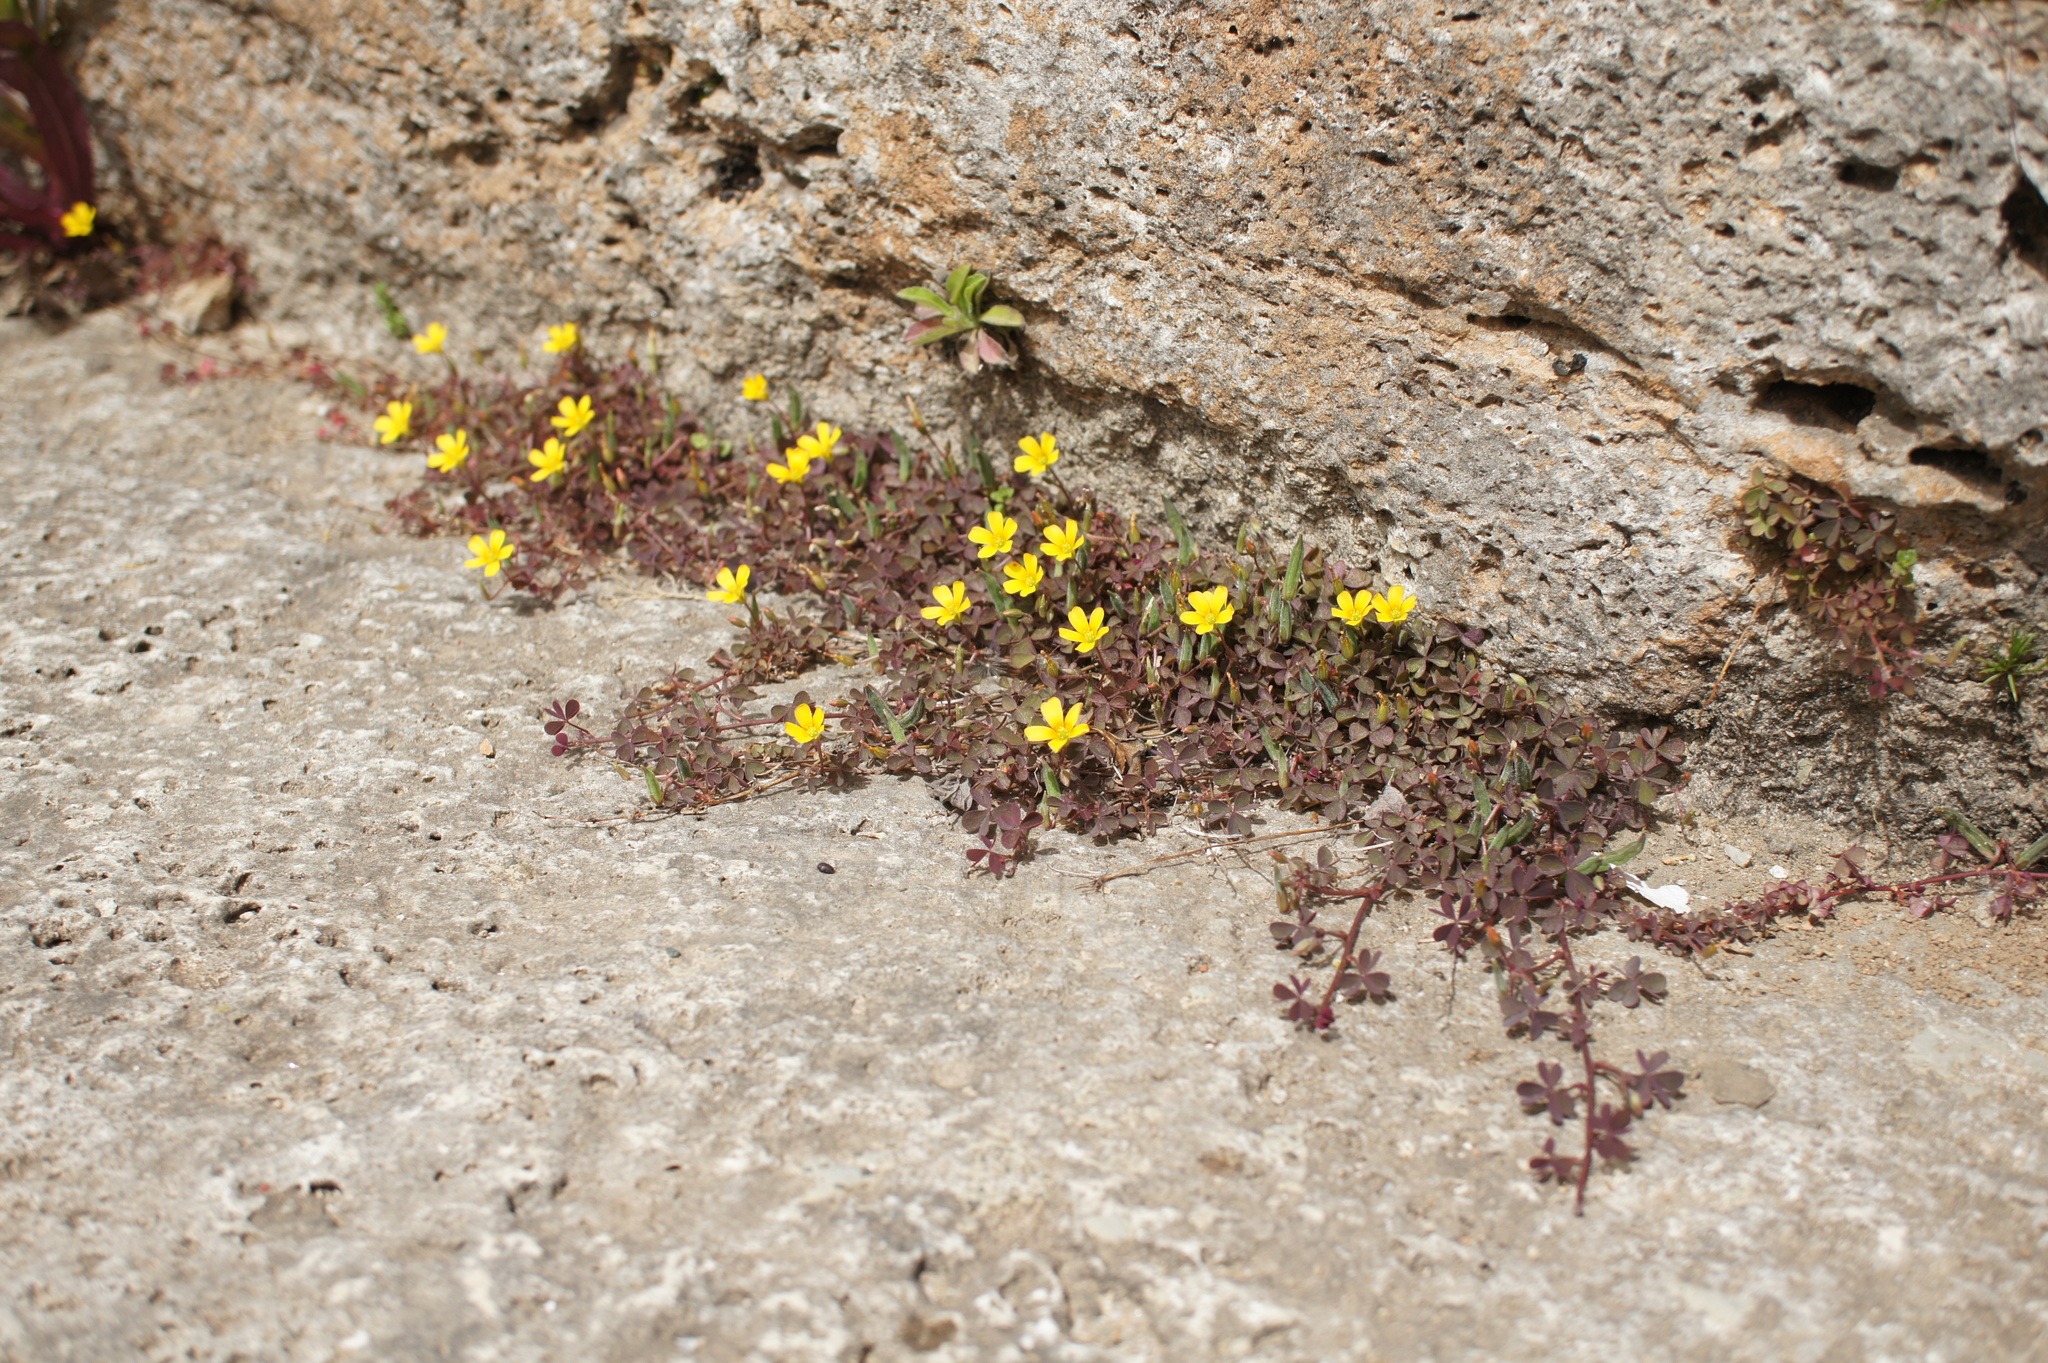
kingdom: Plantae
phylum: Tracheophyta
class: Magnoliopsida
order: Oxalidales
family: Oxalidaceae
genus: Oxalis
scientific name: Oxalis corniculata
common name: Procumbent yellow-sorrel
